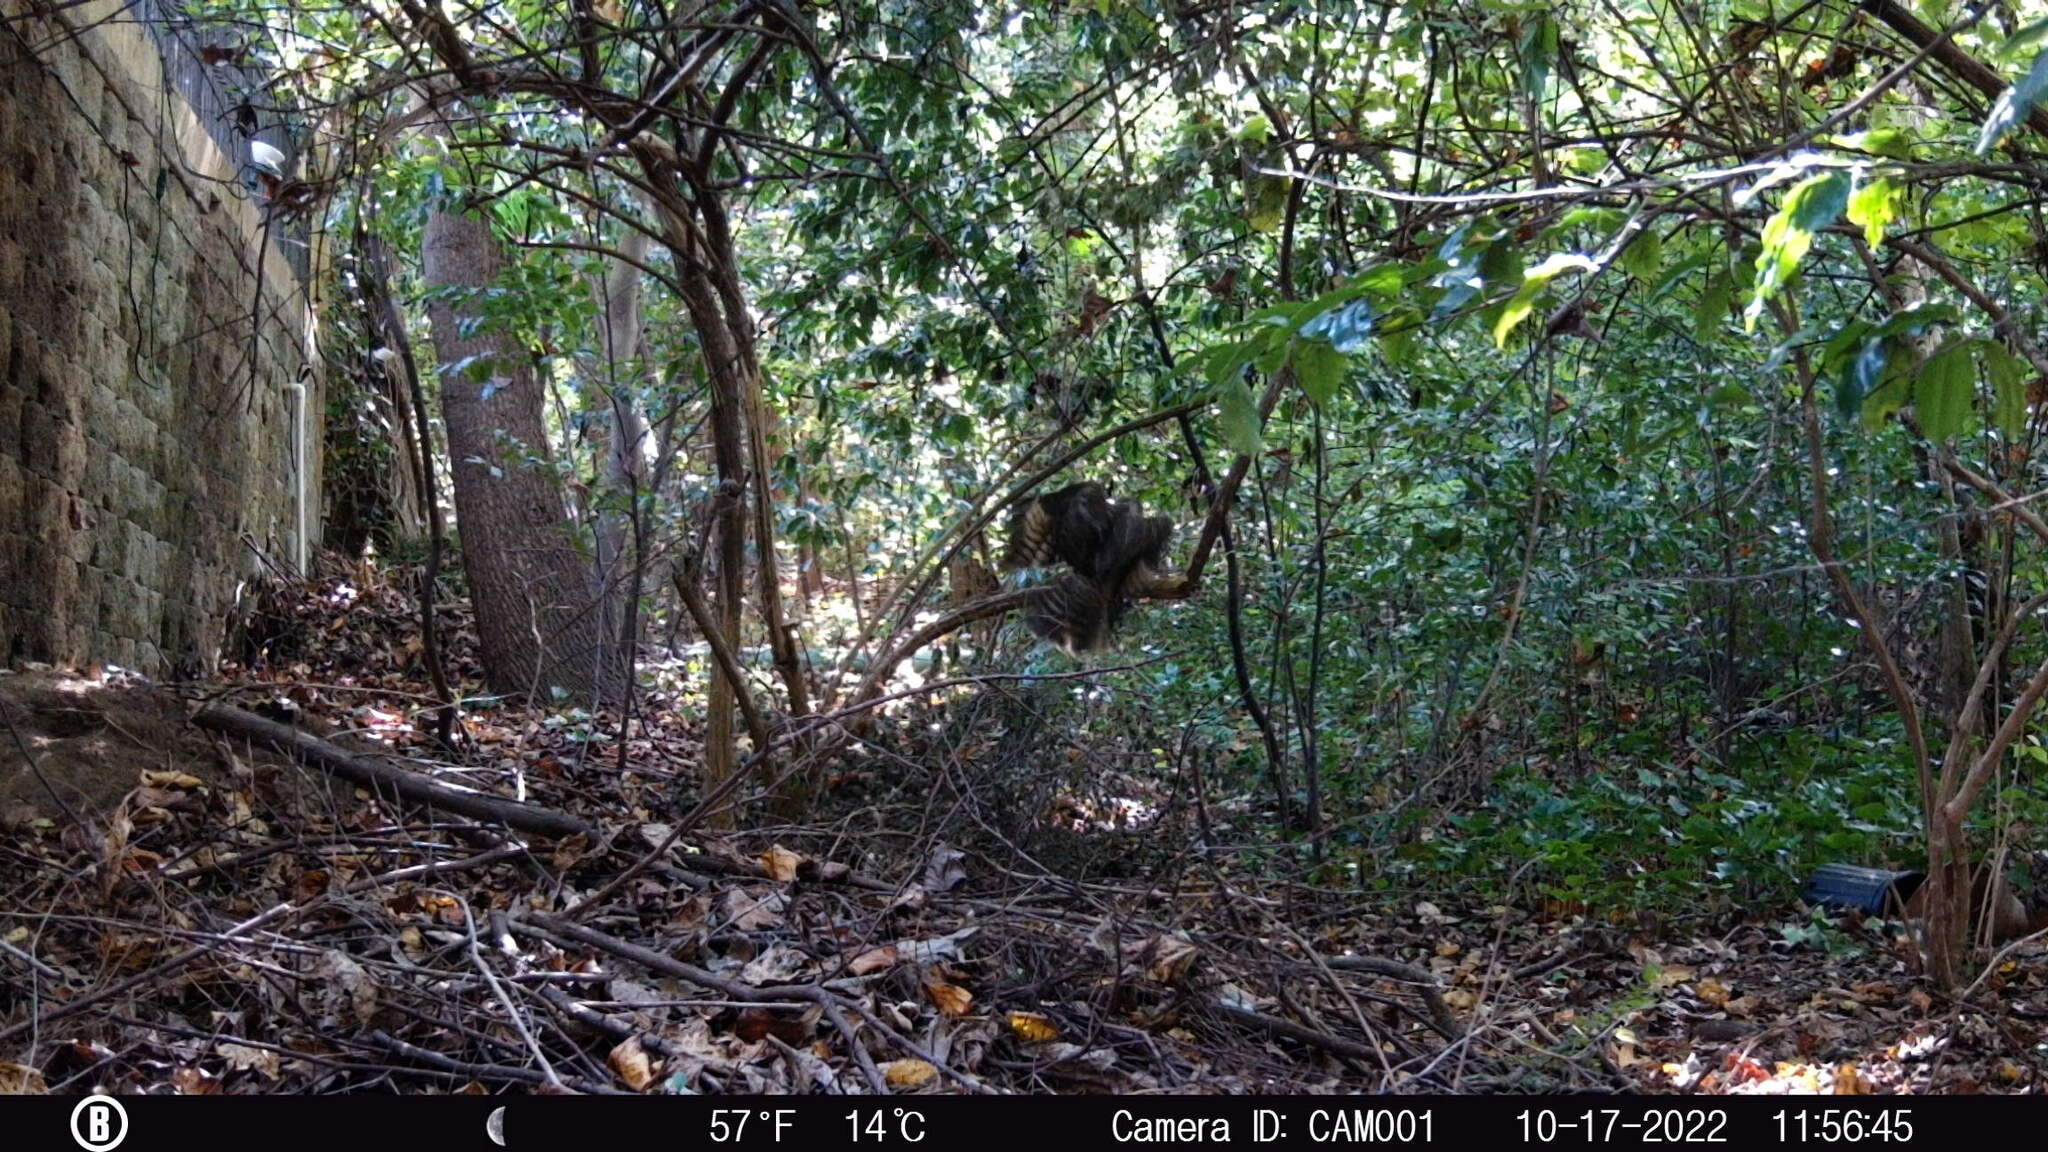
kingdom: Animalia
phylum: Chordata
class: Aves
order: Accipitriformes
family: Accipitridae
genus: Buteo
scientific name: Buteo lineatus
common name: Red-shouldered hawk
